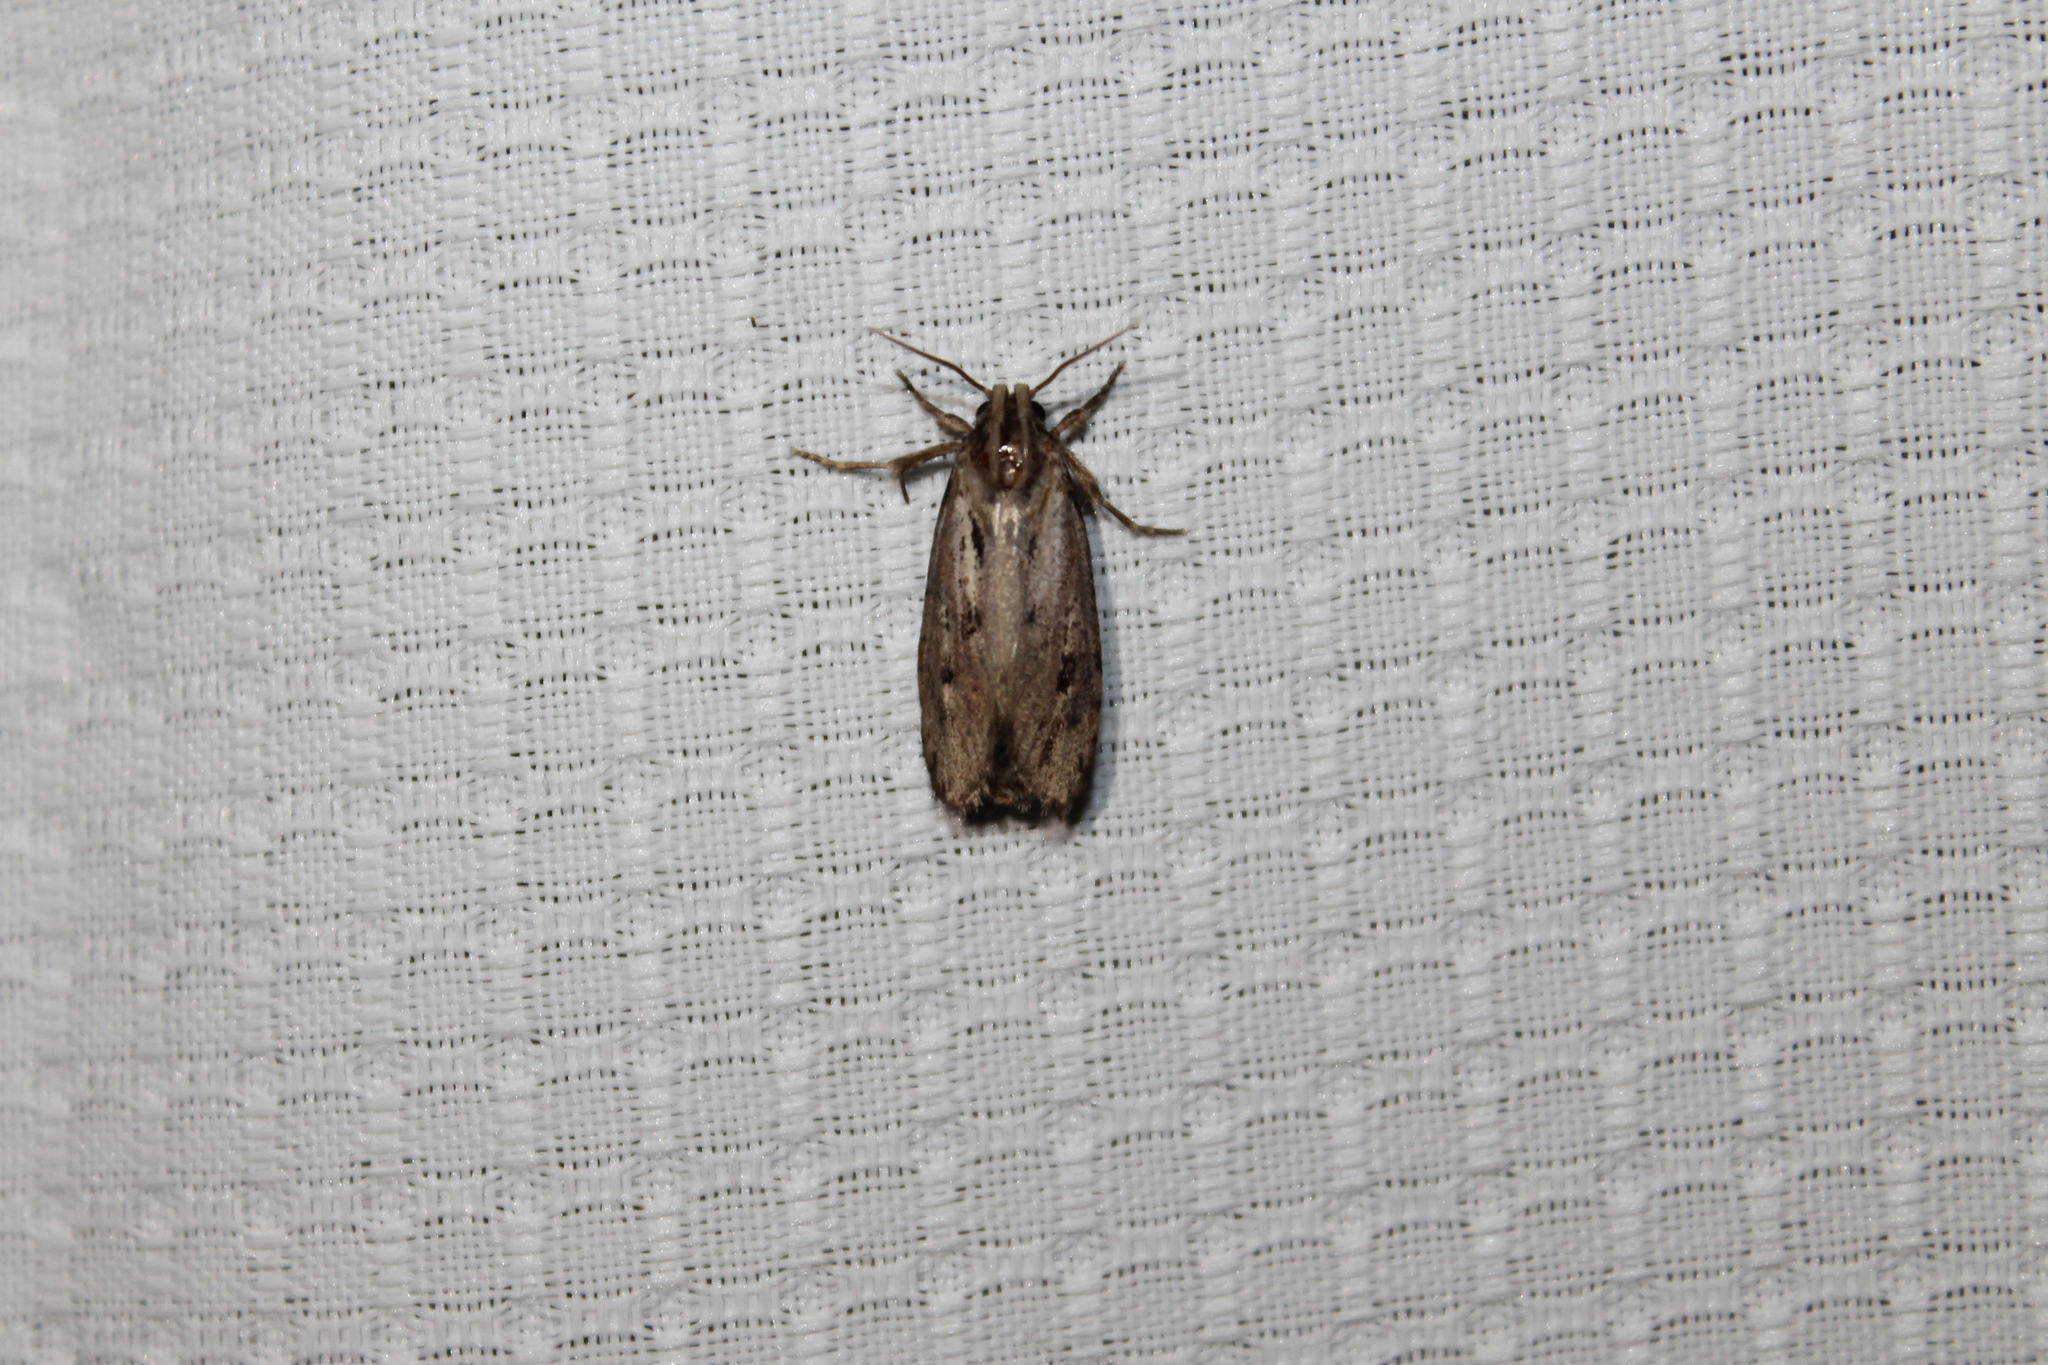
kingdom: Animalia
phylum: Arthropoda
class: Insecta
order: Lepidoptera
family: Tineidae
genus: Acrolophus
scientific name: Acrolophus popeanella
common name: Clemens' grass tubeworm moth
